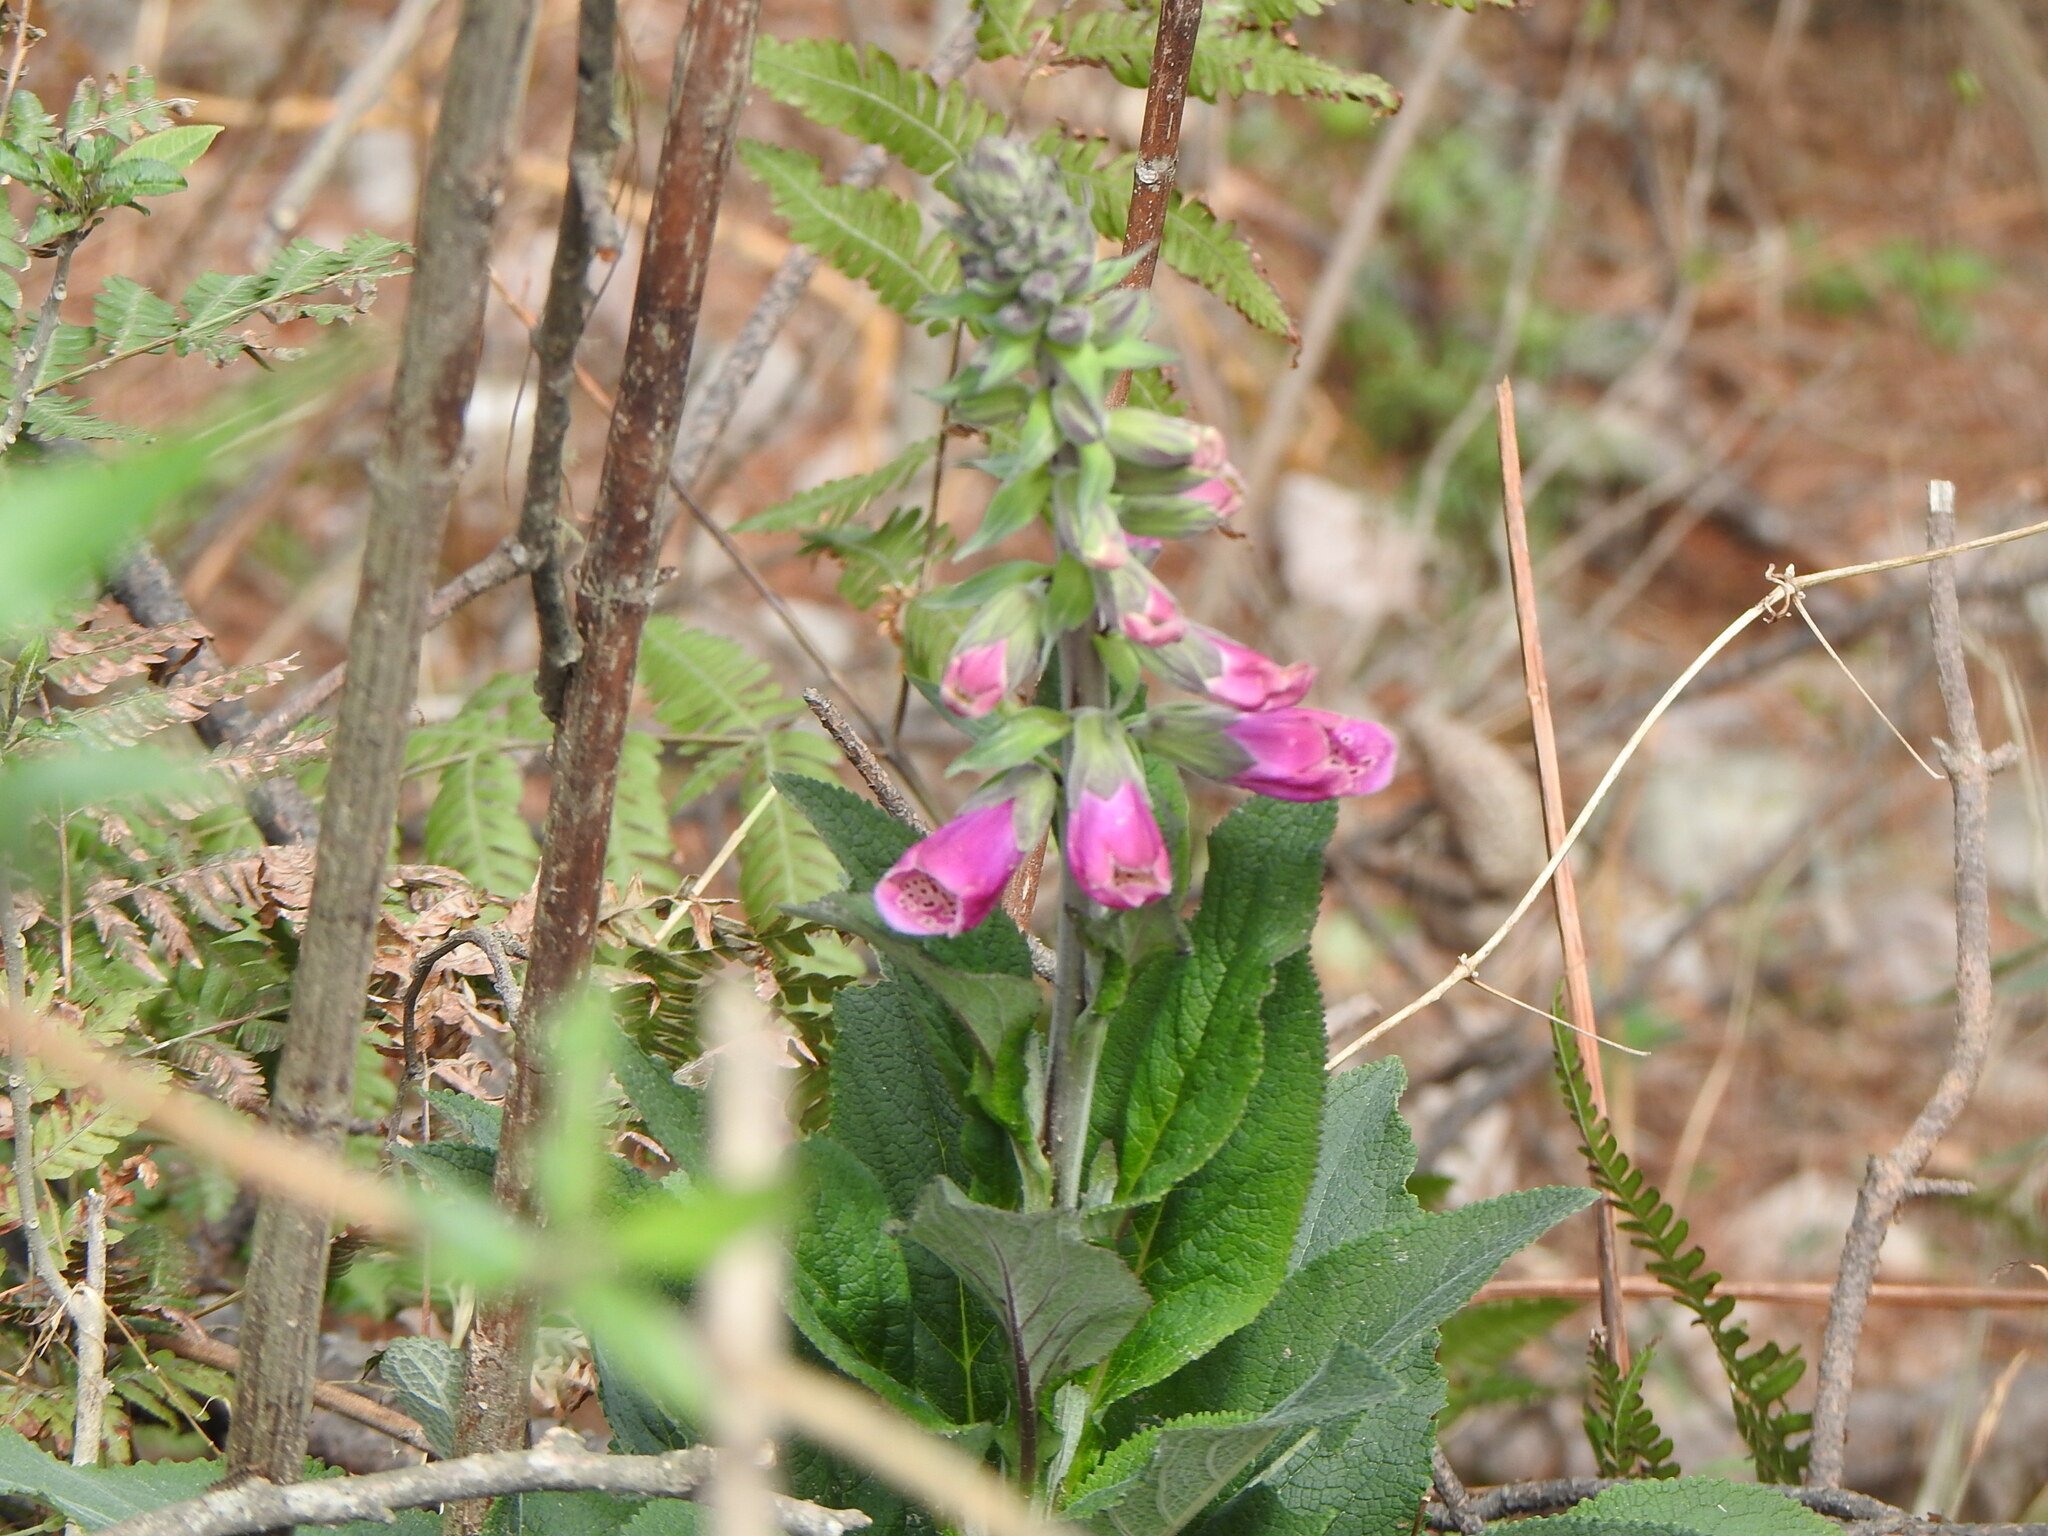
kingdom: Plantae
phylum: Tracheophyta
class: Magnoliopsida
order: Lamiales
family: Plantaginaceae
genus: Digitalis
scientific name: Digitalis purpurea
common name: Foxglove
